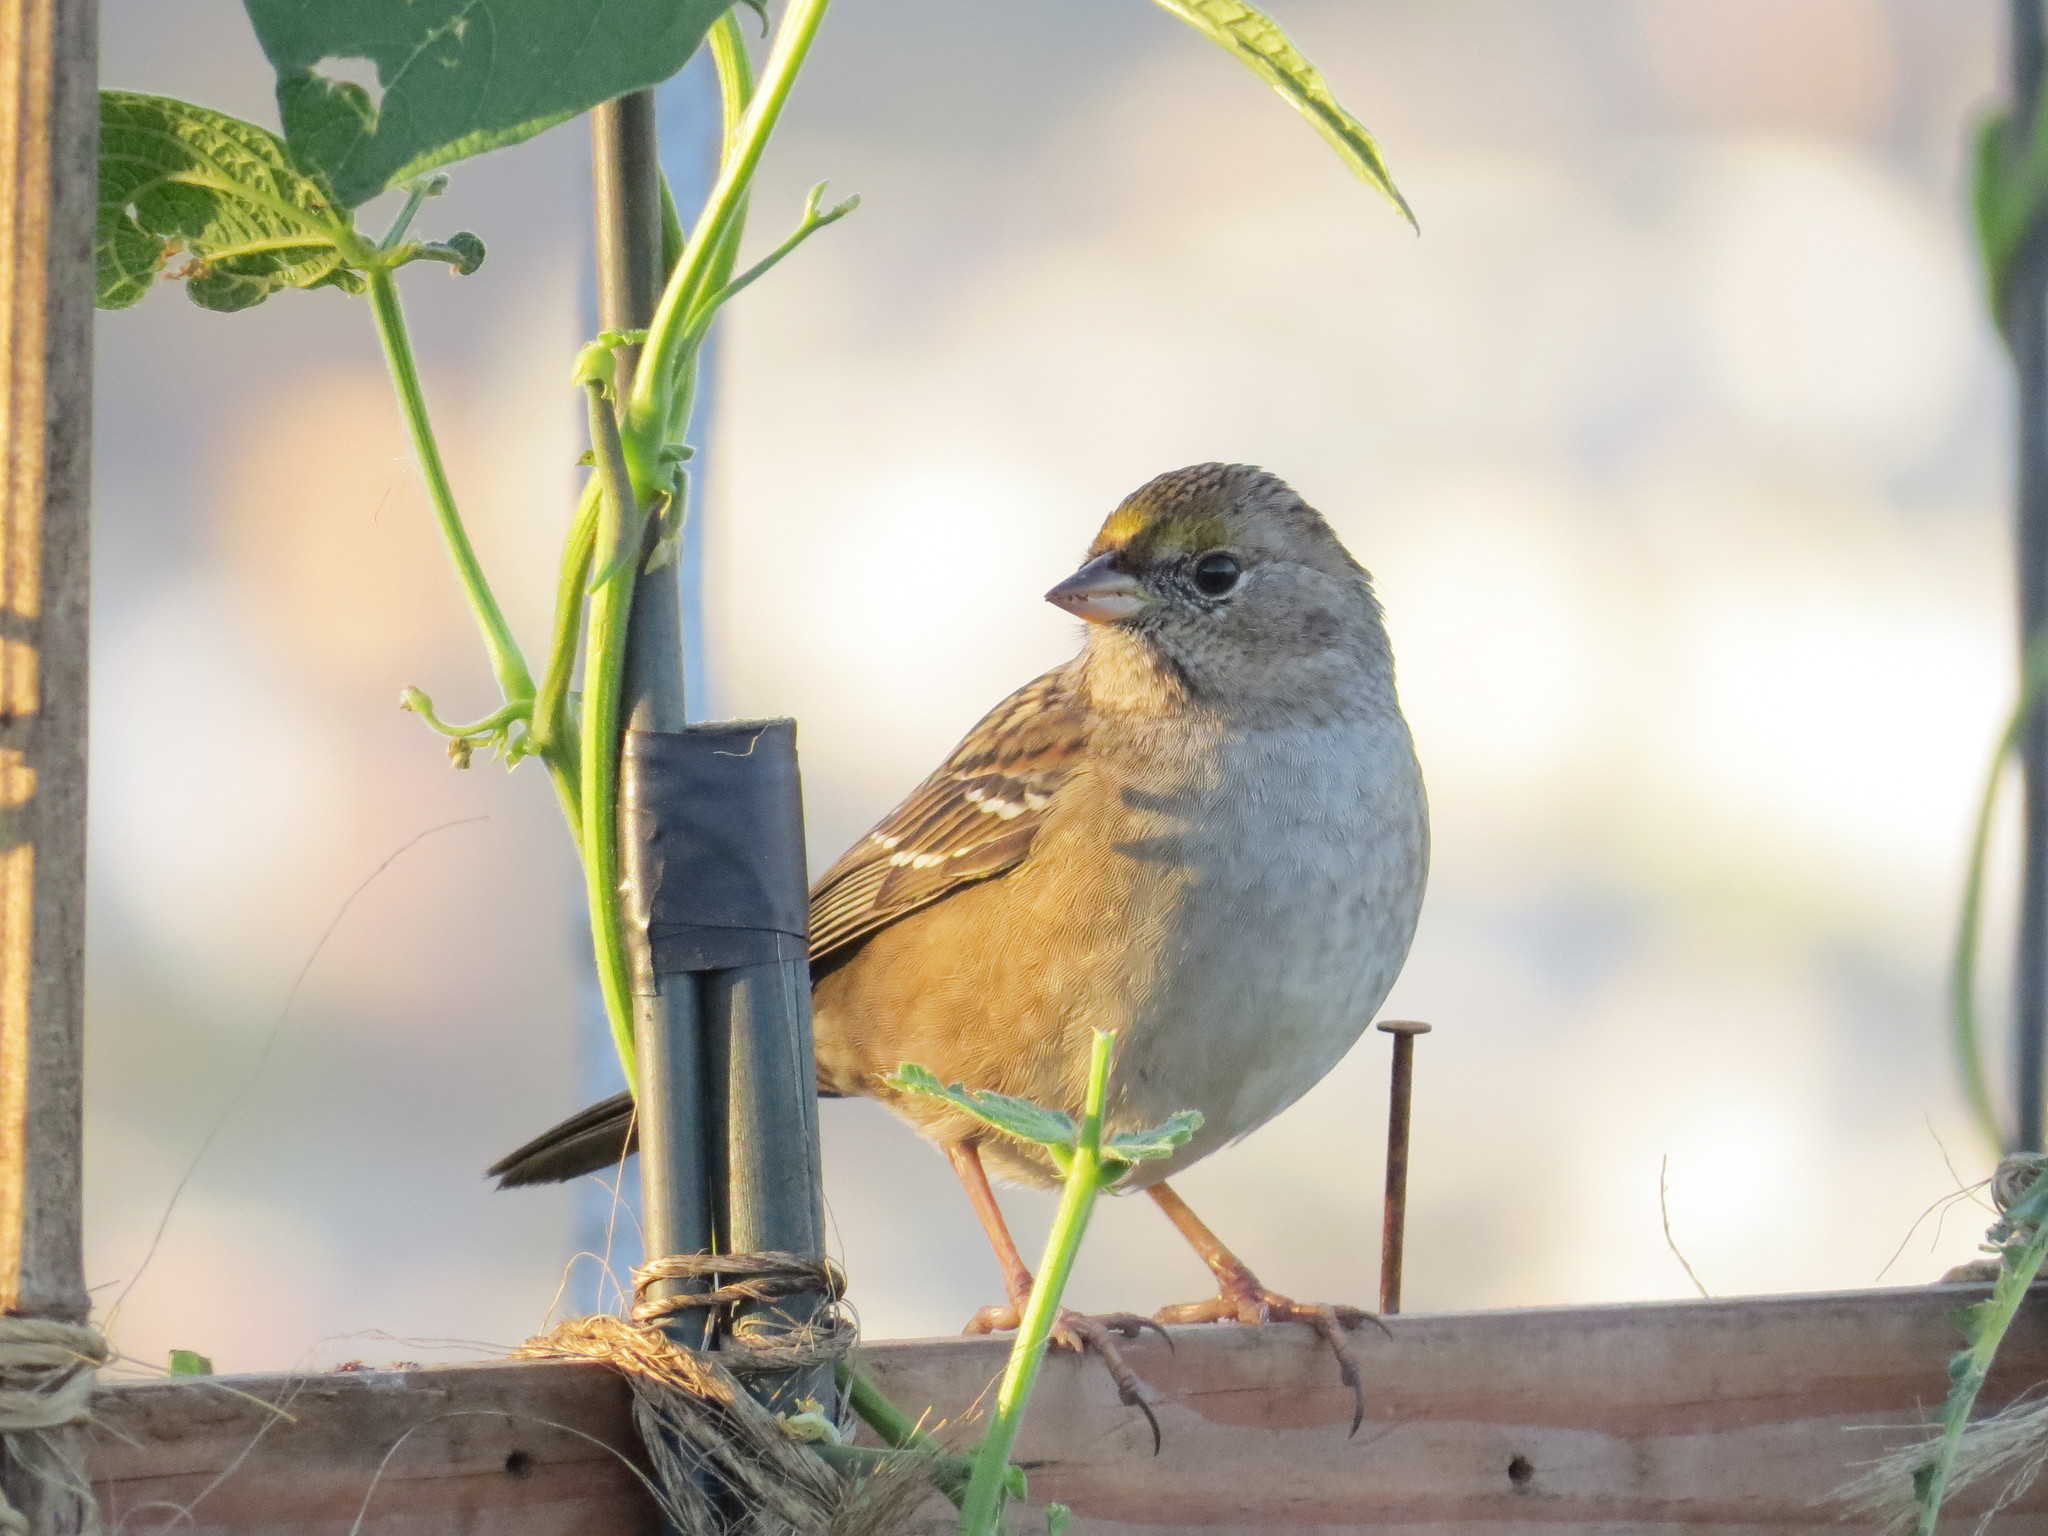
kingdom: Animalia
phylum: Chordata
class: Aves
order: Passeriformes
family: Passerellidae
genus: Zonotrichia
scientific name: Zonotrichia atricapilla
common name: Golden-crowned sparrow
